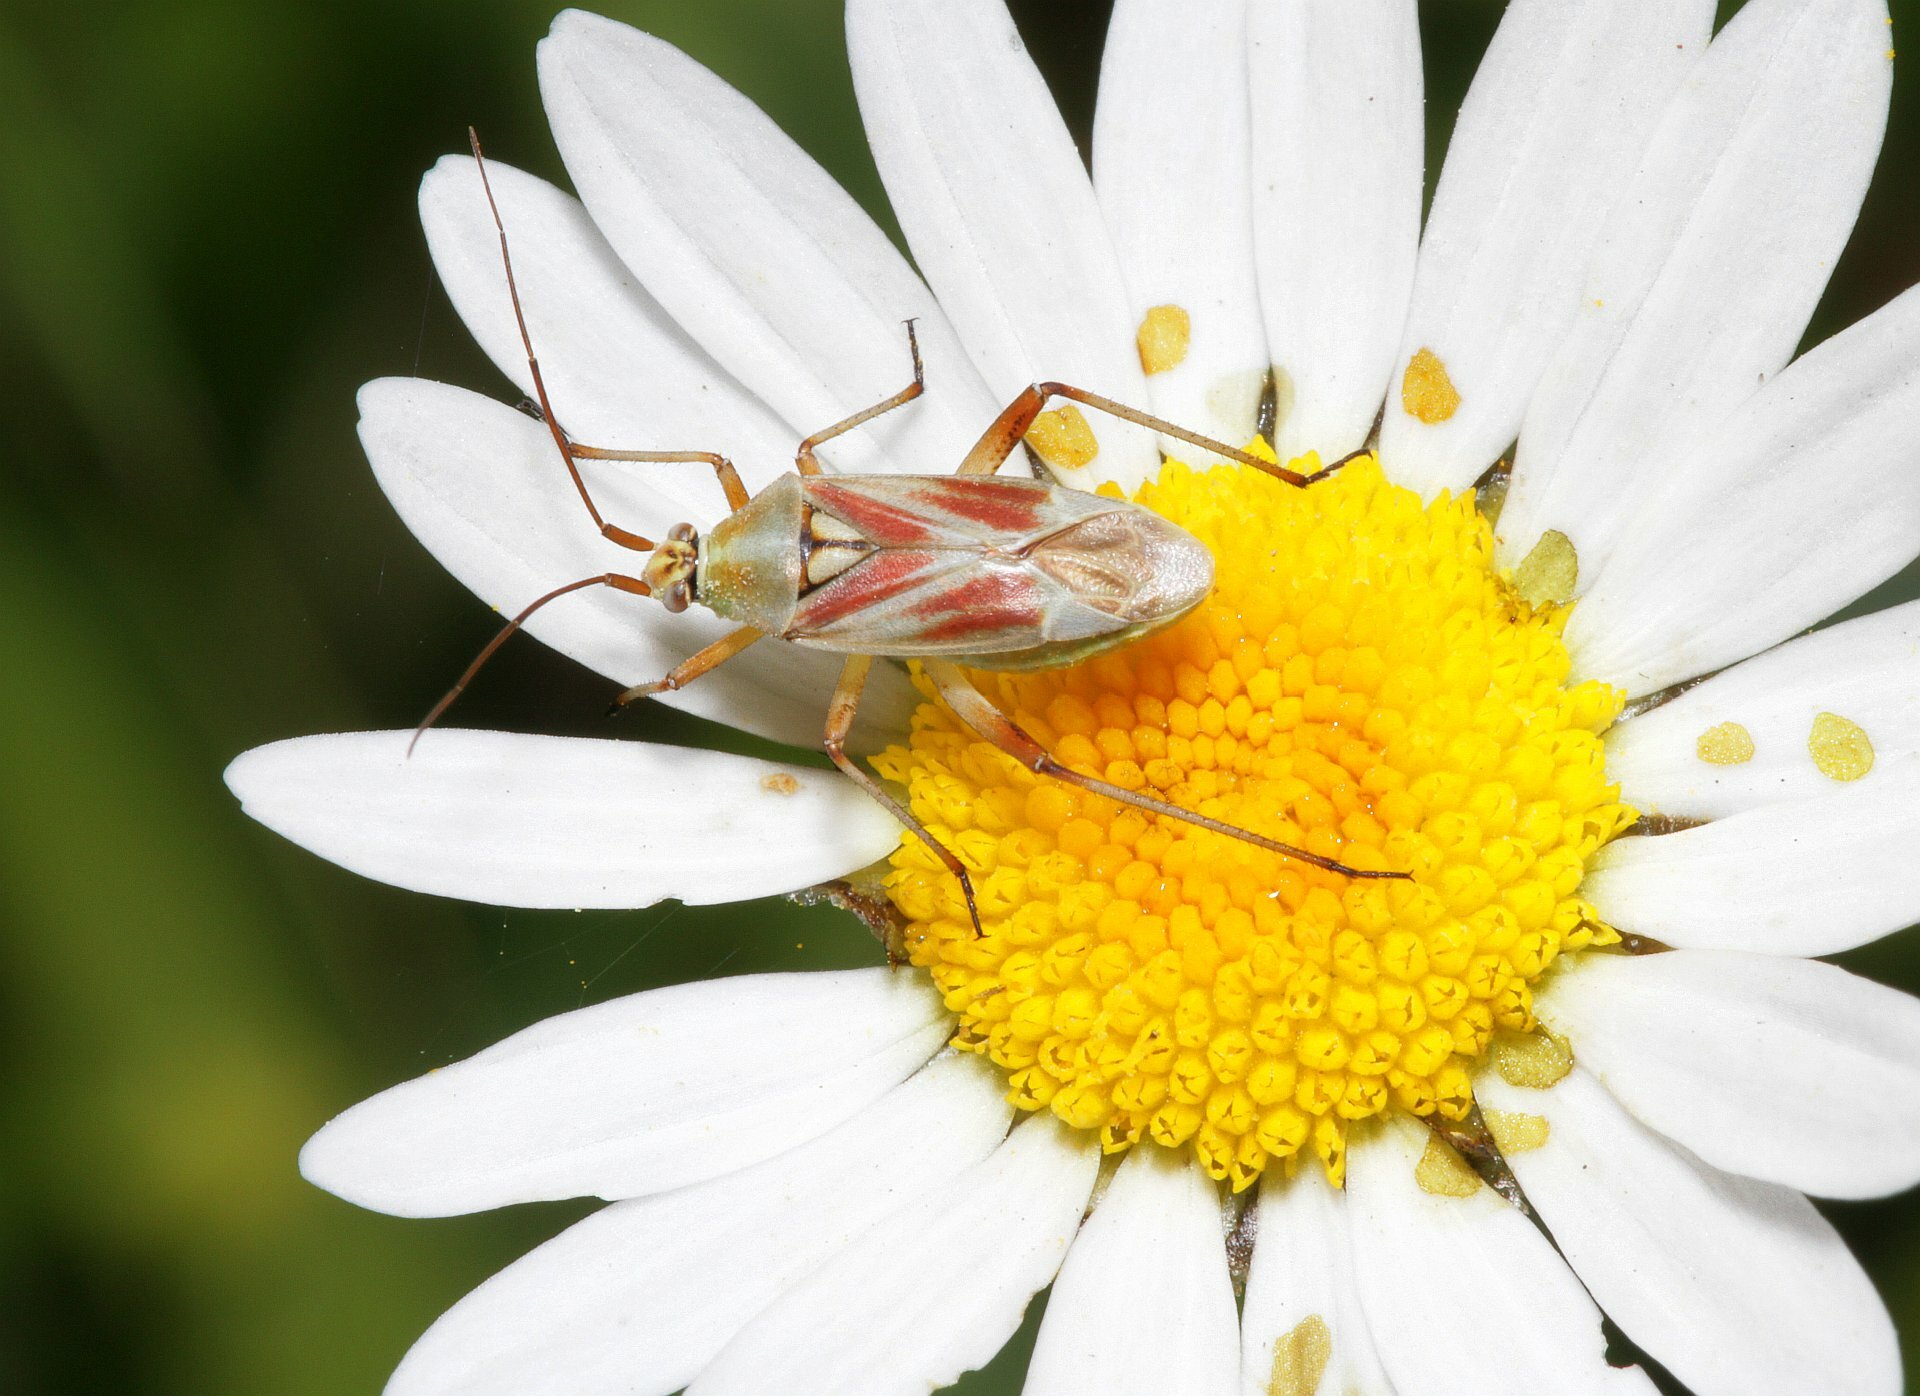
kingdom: Animalia
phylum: Arthropoda
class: Insecta
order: Hemiptera
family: Miridae
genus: Calocoris
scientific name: Calocoris roseomaculatus
